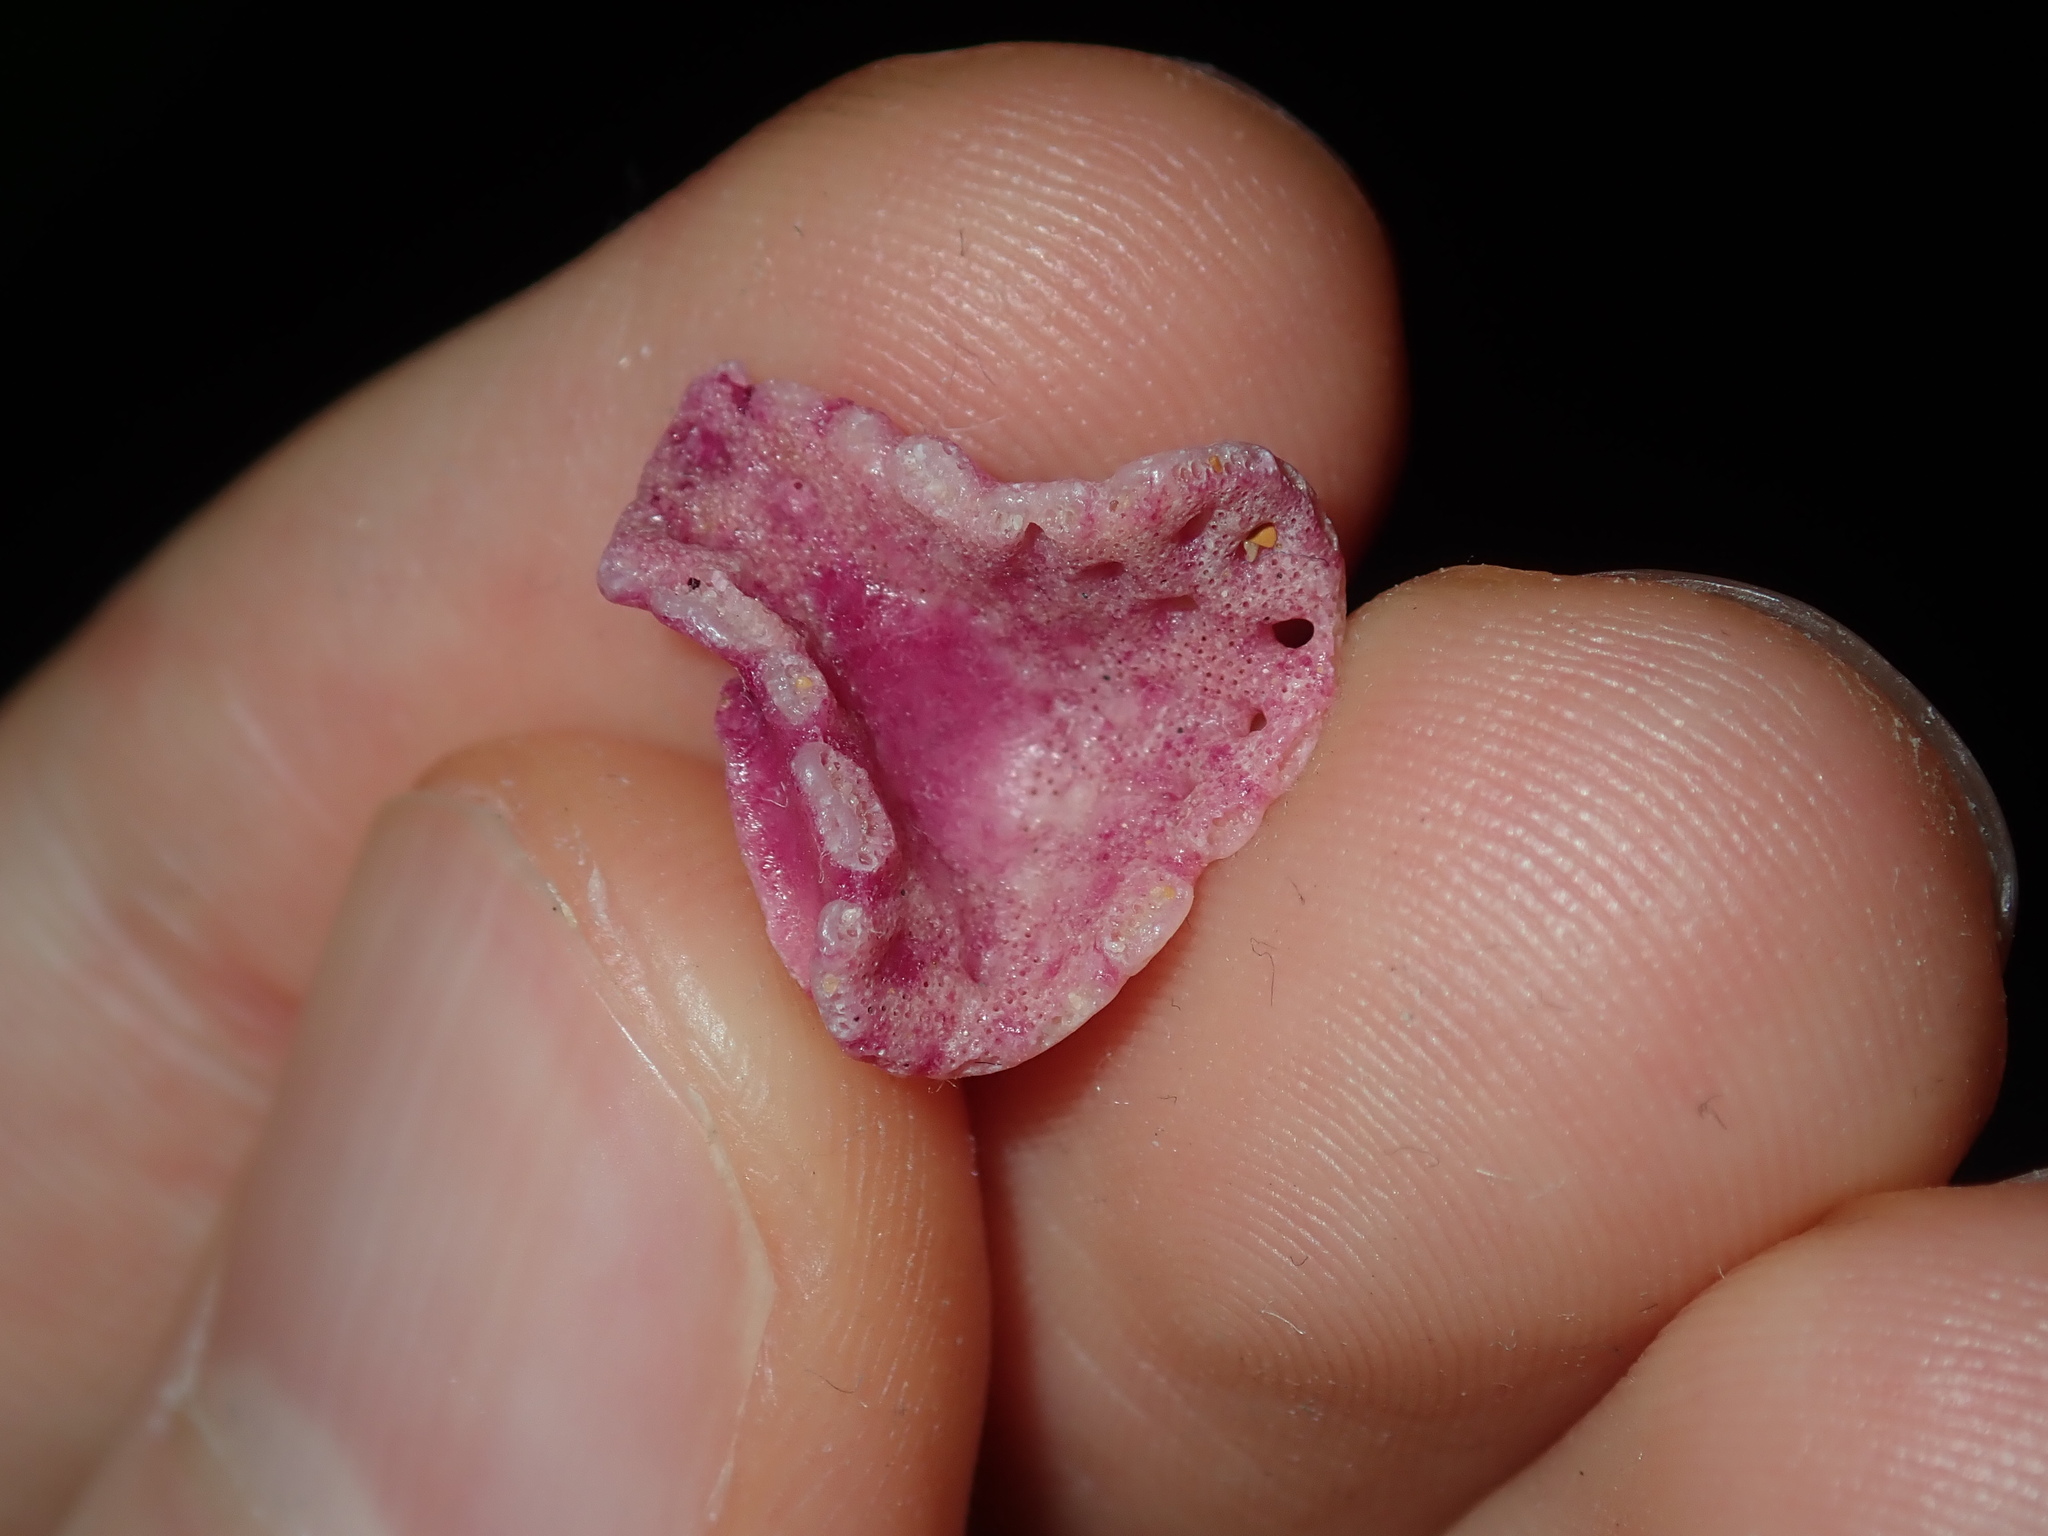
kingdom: Animalia
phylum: Bryozoa
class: Gymnolaemata
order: Cheilostomatida
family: Phidoloporidae
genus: Iodictyum
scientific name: Iodictyum phoeniceum
